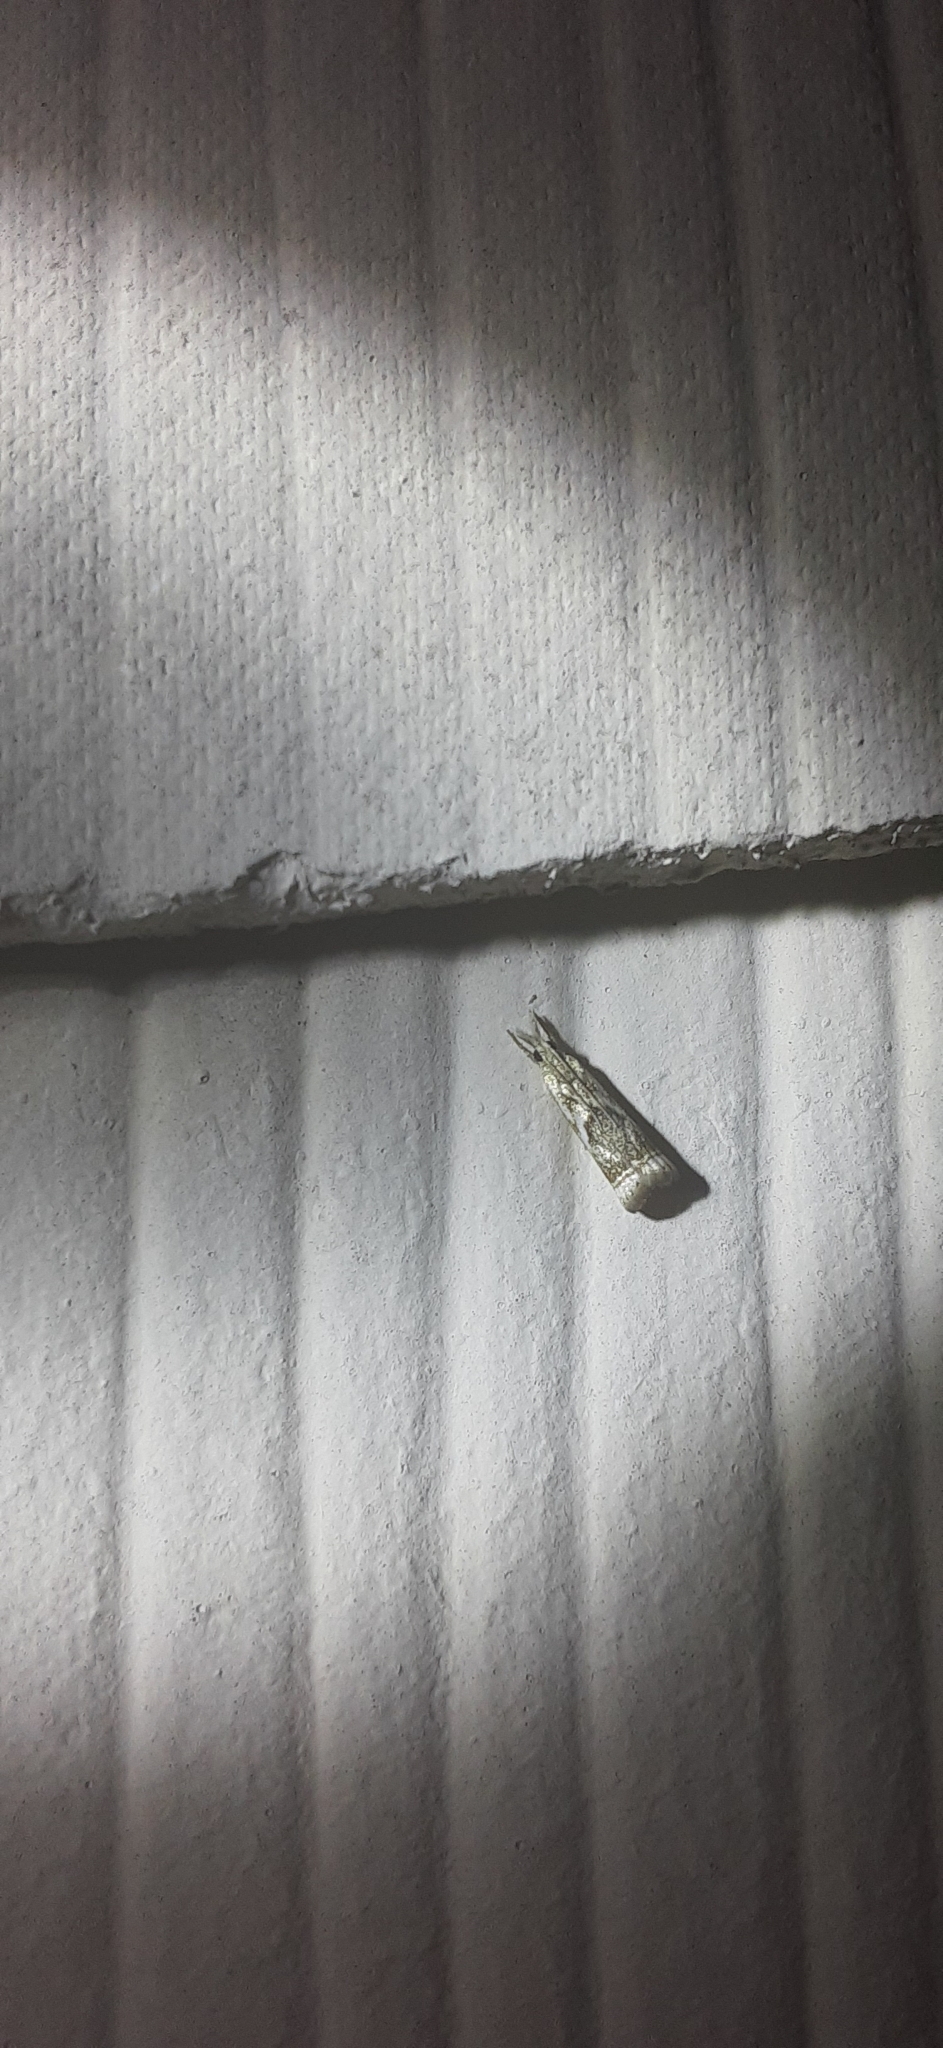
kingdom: Animalia
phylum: Arthropoda
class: Insecta
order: Lepidoptera
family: Crambidae
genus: Microcrambus
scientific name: Microcrambus elegans
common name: Elegant grass-veneer
